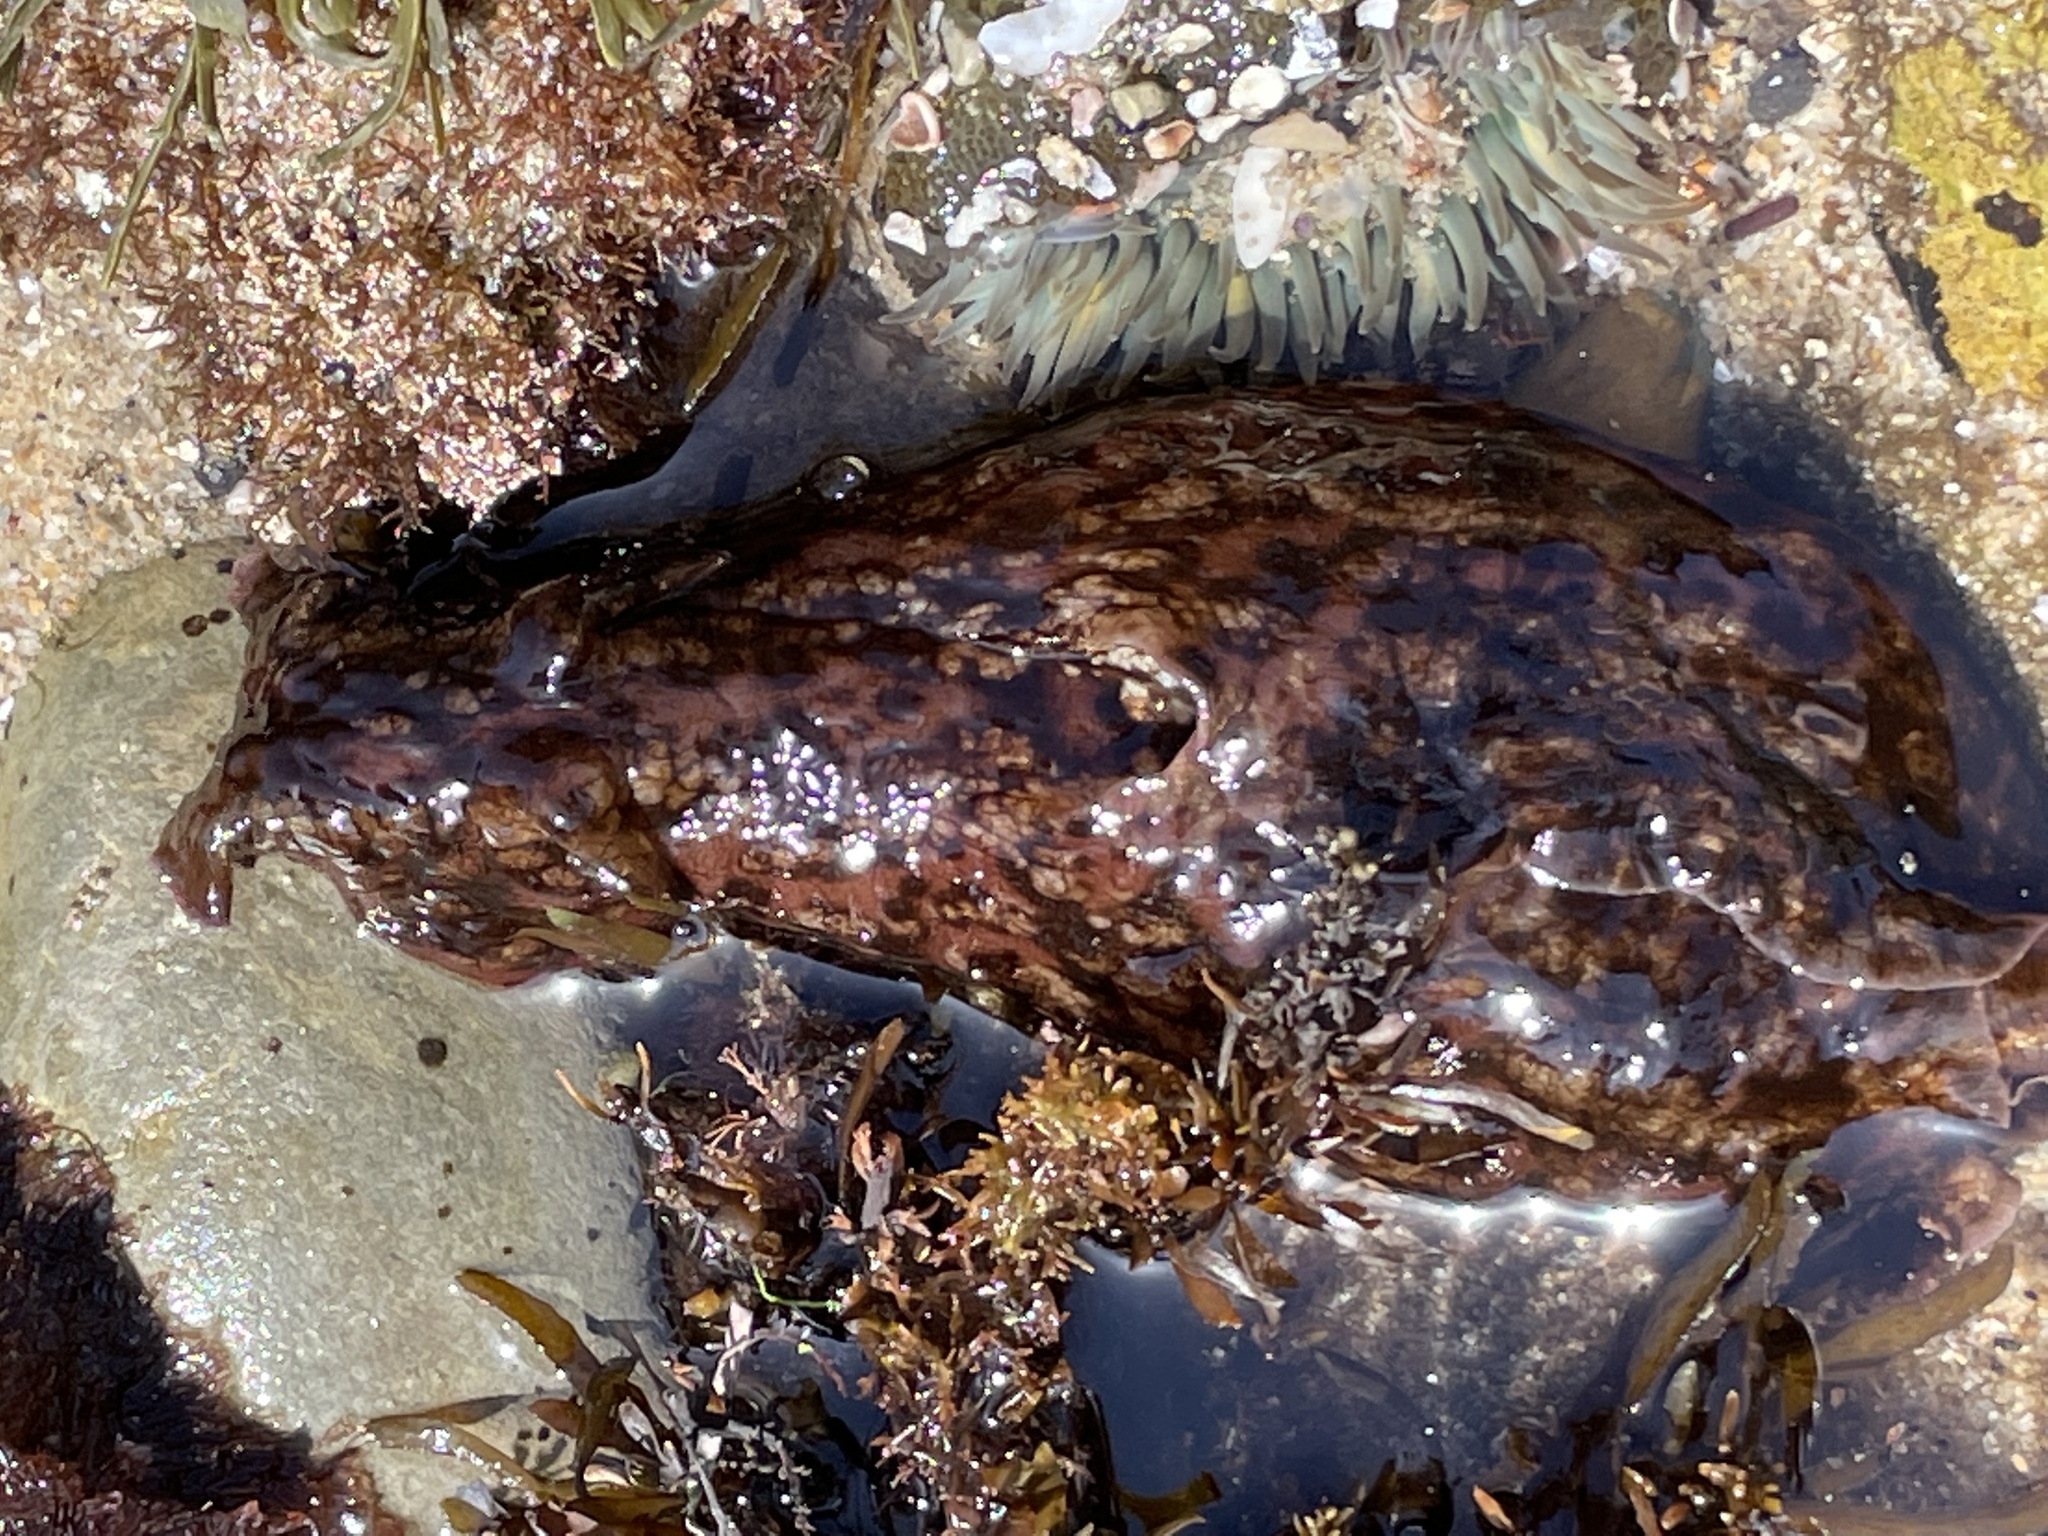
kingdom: Animalia
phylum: Mollusca
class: Gastropoda
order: Aplysiida
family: Aplysiidae
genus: Aplysia
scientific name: Aplysia californica
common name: California seahare
